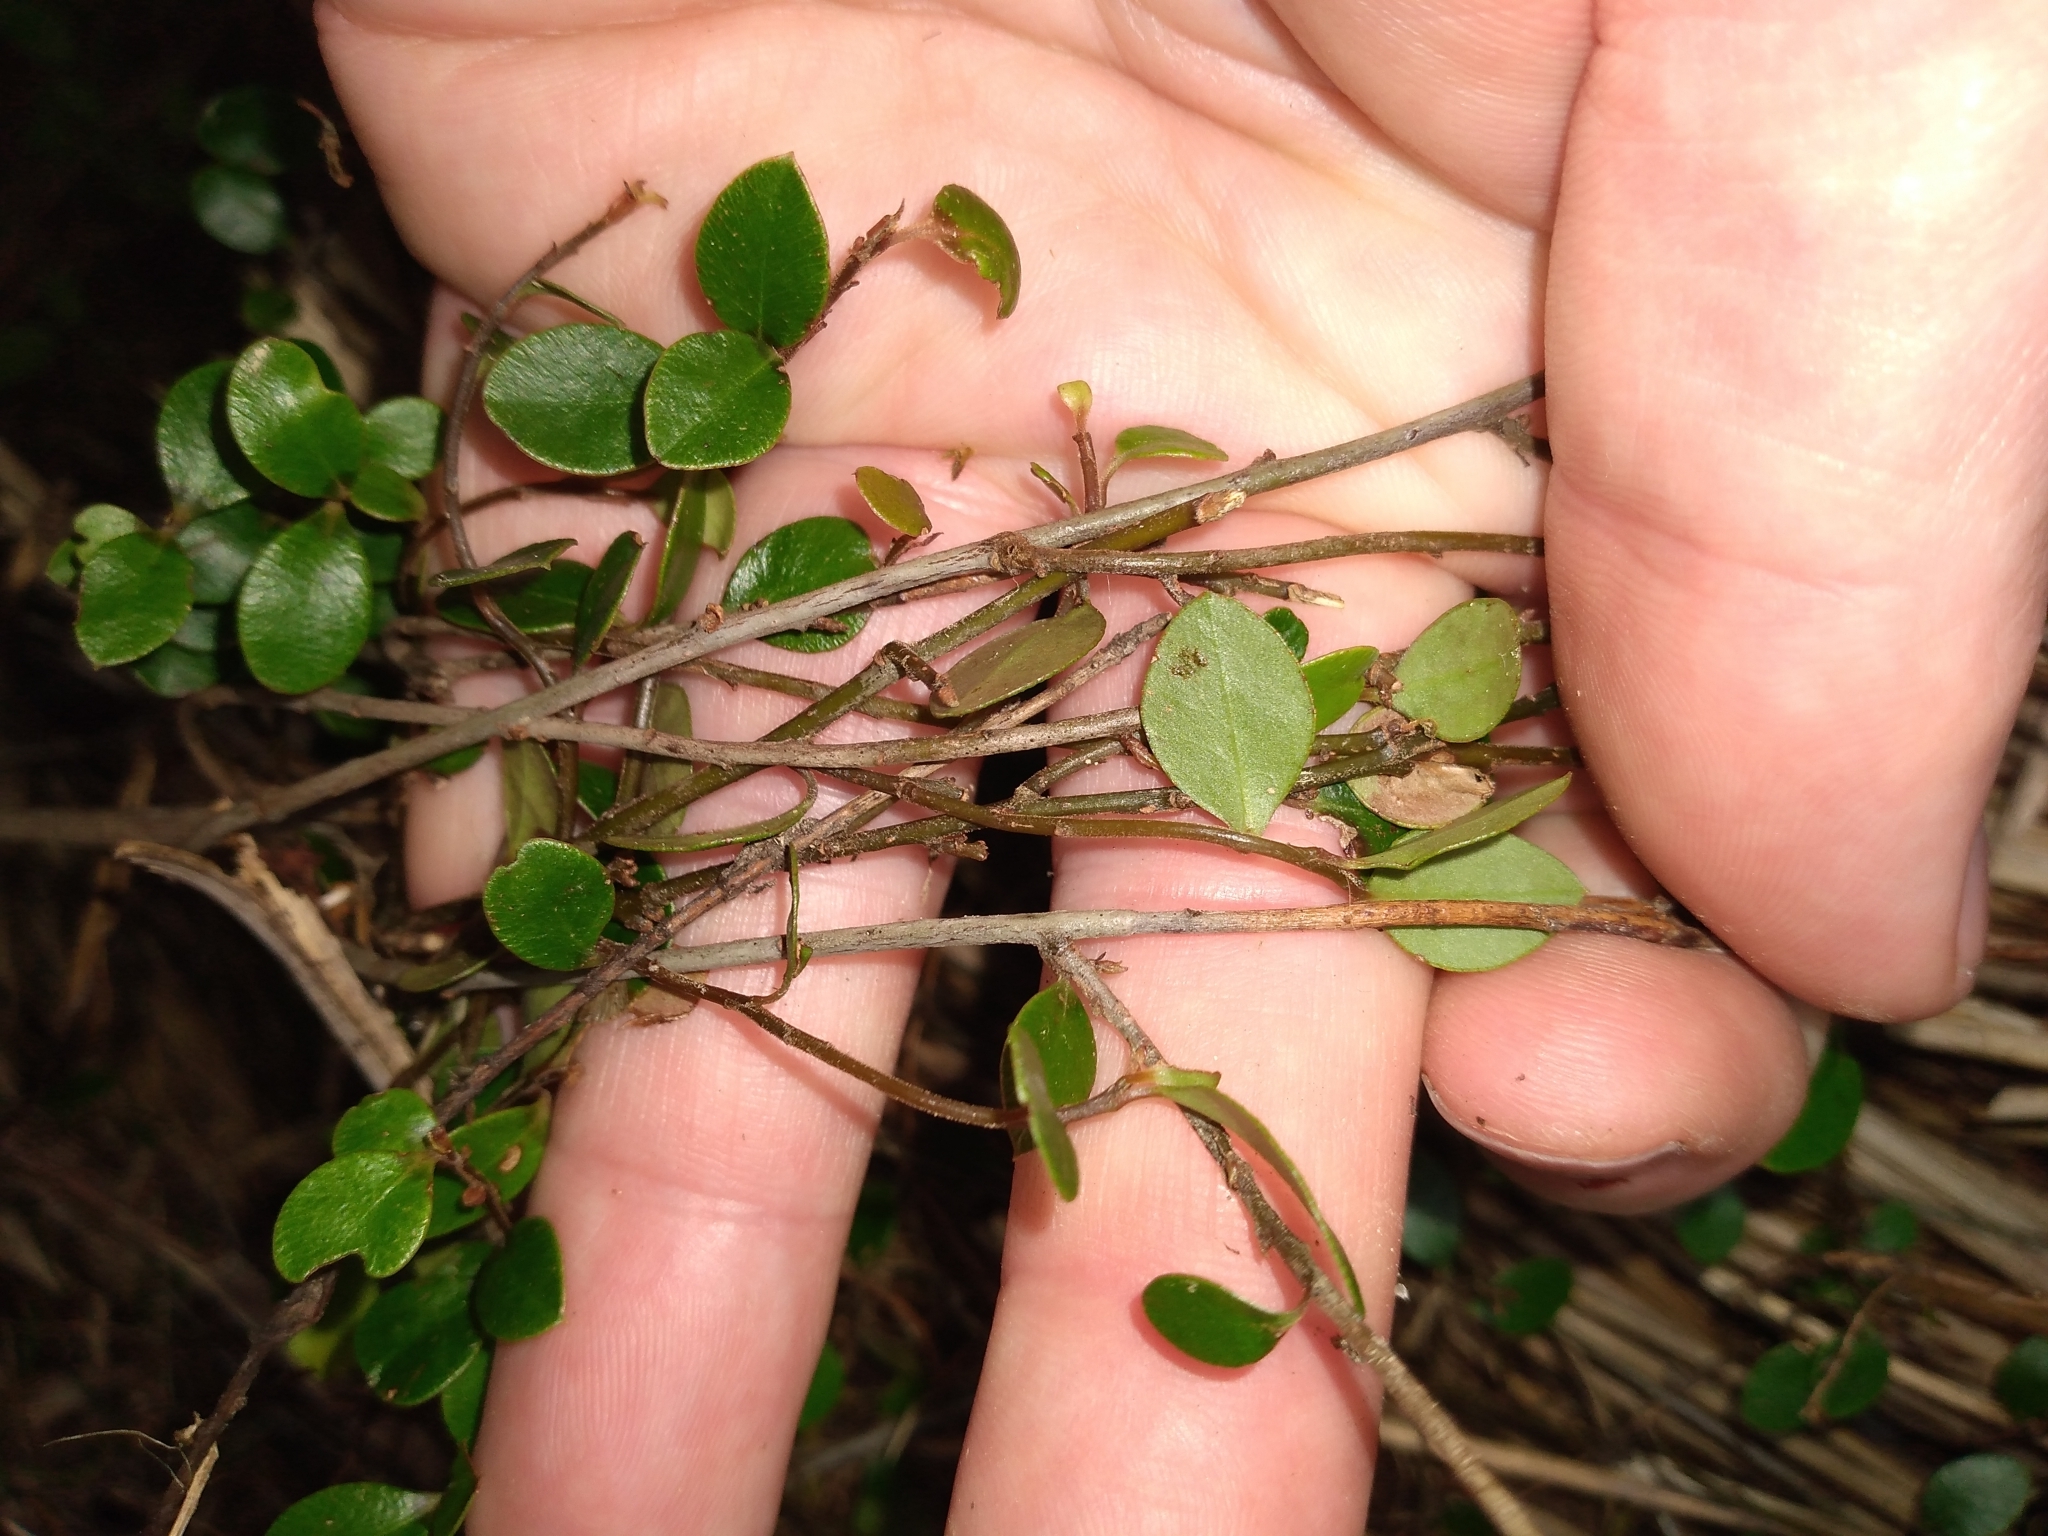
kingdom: Plantae
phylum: Tracheophyta
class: Magnoliopsida
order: Ericales
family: Primulaceae
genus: Myrsine
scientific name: Myrsine nummularia
